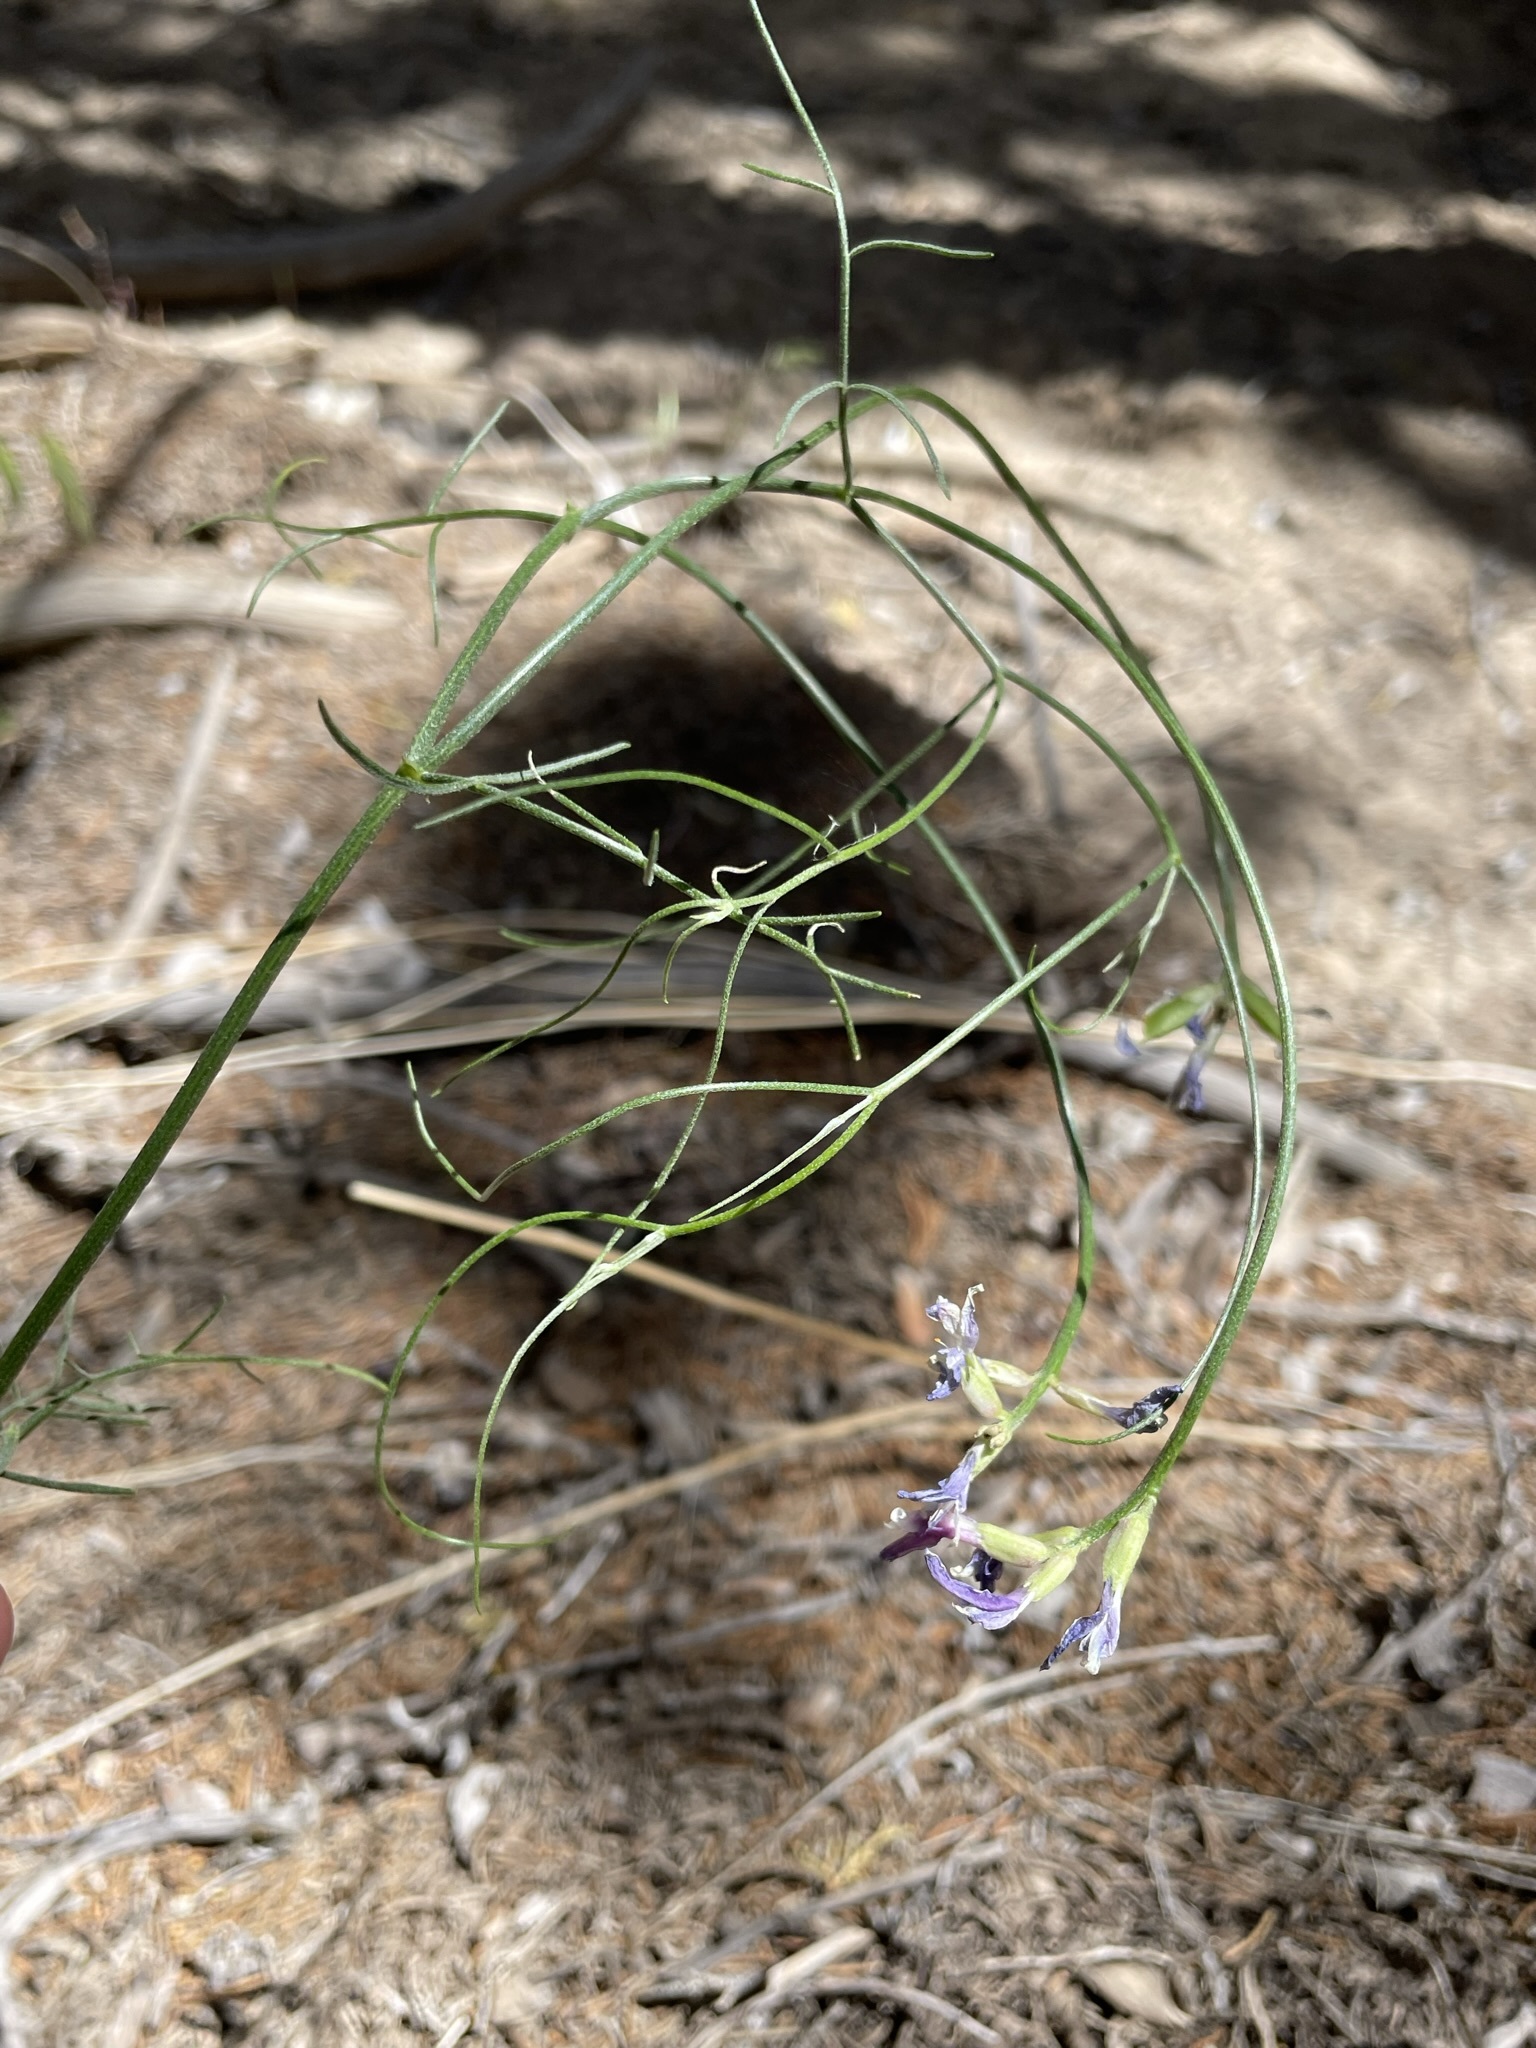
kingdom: Plantae
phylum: Tracheophyta
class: Magnoliopsida
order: Fabales
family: Fabaceae
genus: Astragalus
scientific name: Astragalus toanus
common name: Toano milk-vetch
